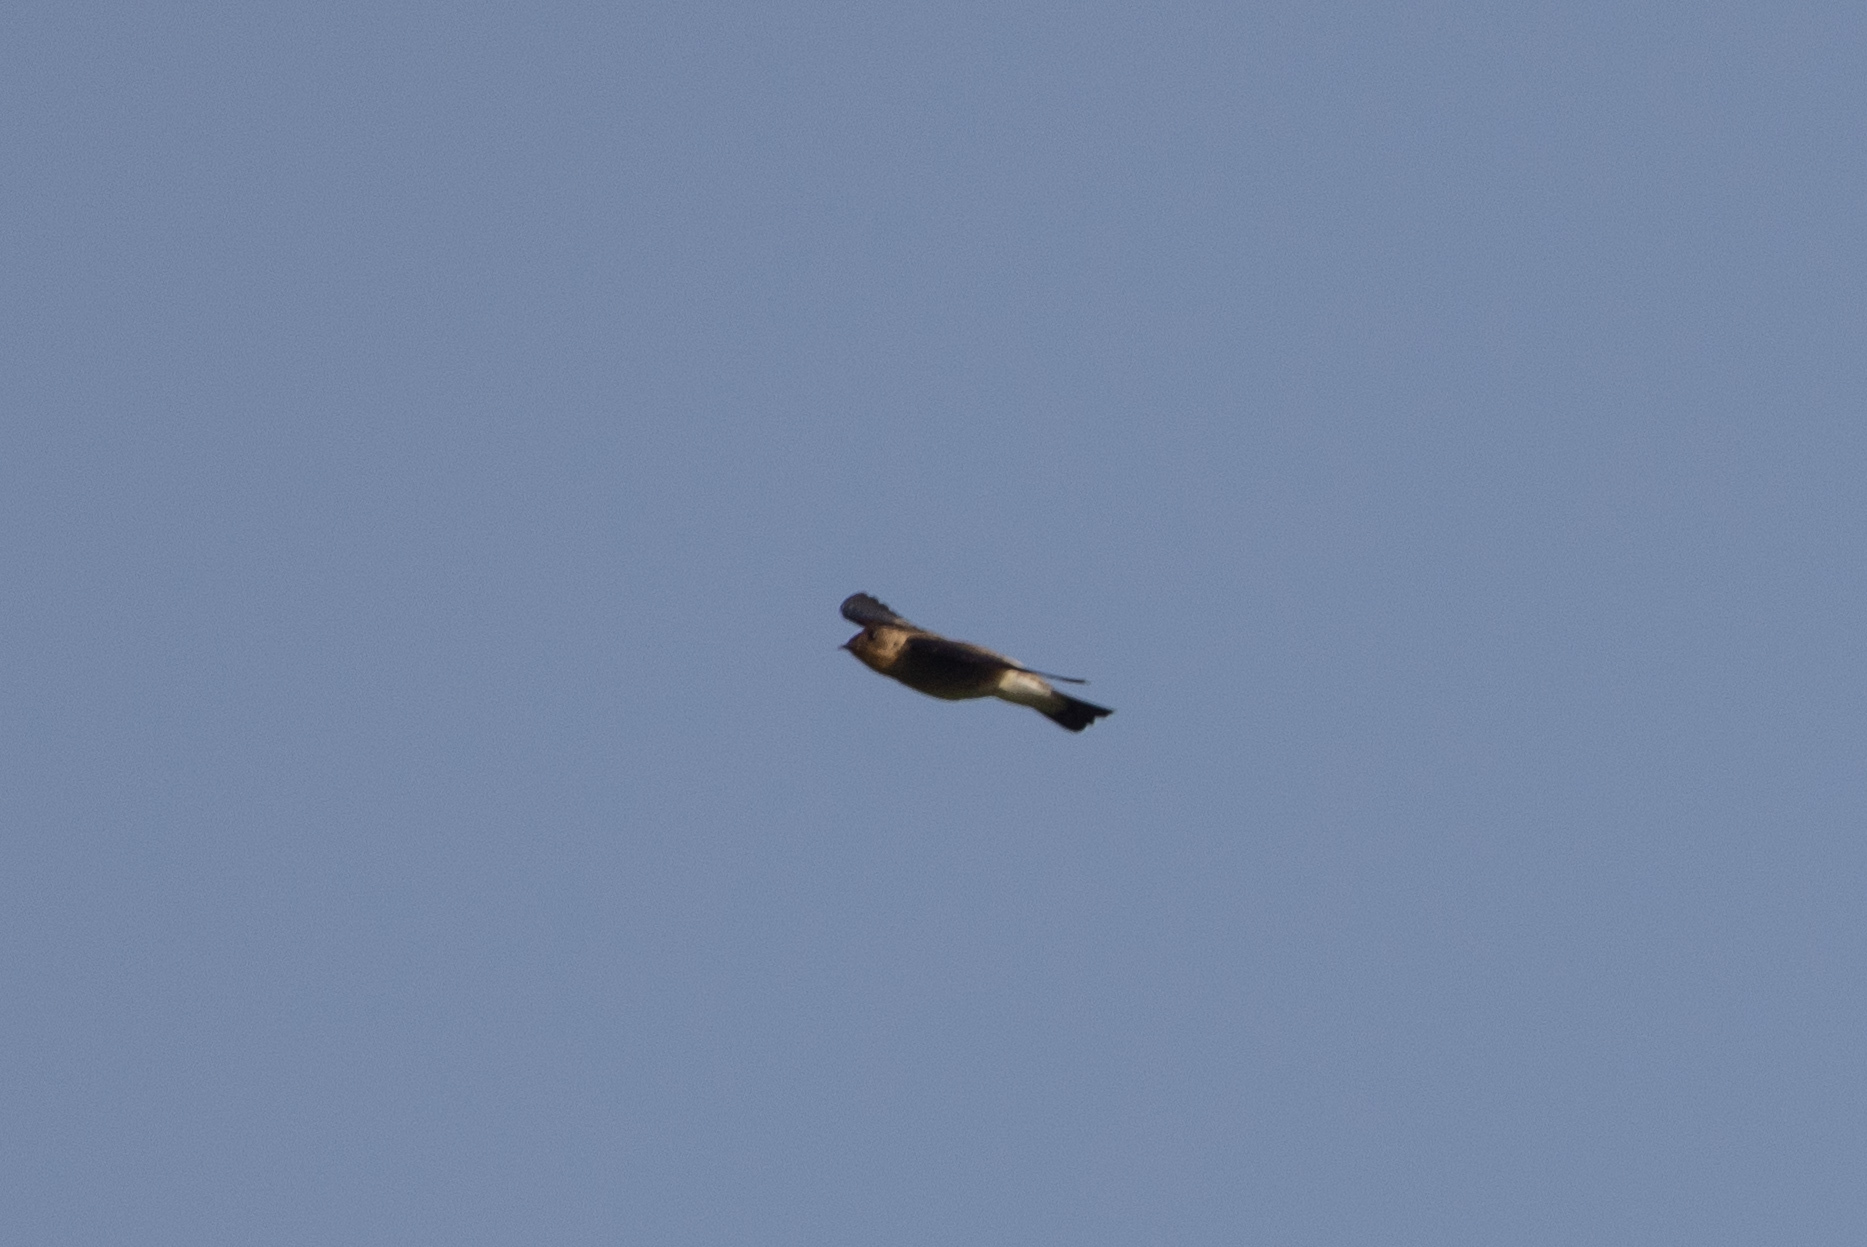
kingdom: Animalia
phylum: Chordata
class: Aves
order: Passeriformes
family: Hirundinidae
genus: Stelgidopteryx
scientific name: Stelgidopteryx ruficollis
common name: Southern rough-winged swallow
